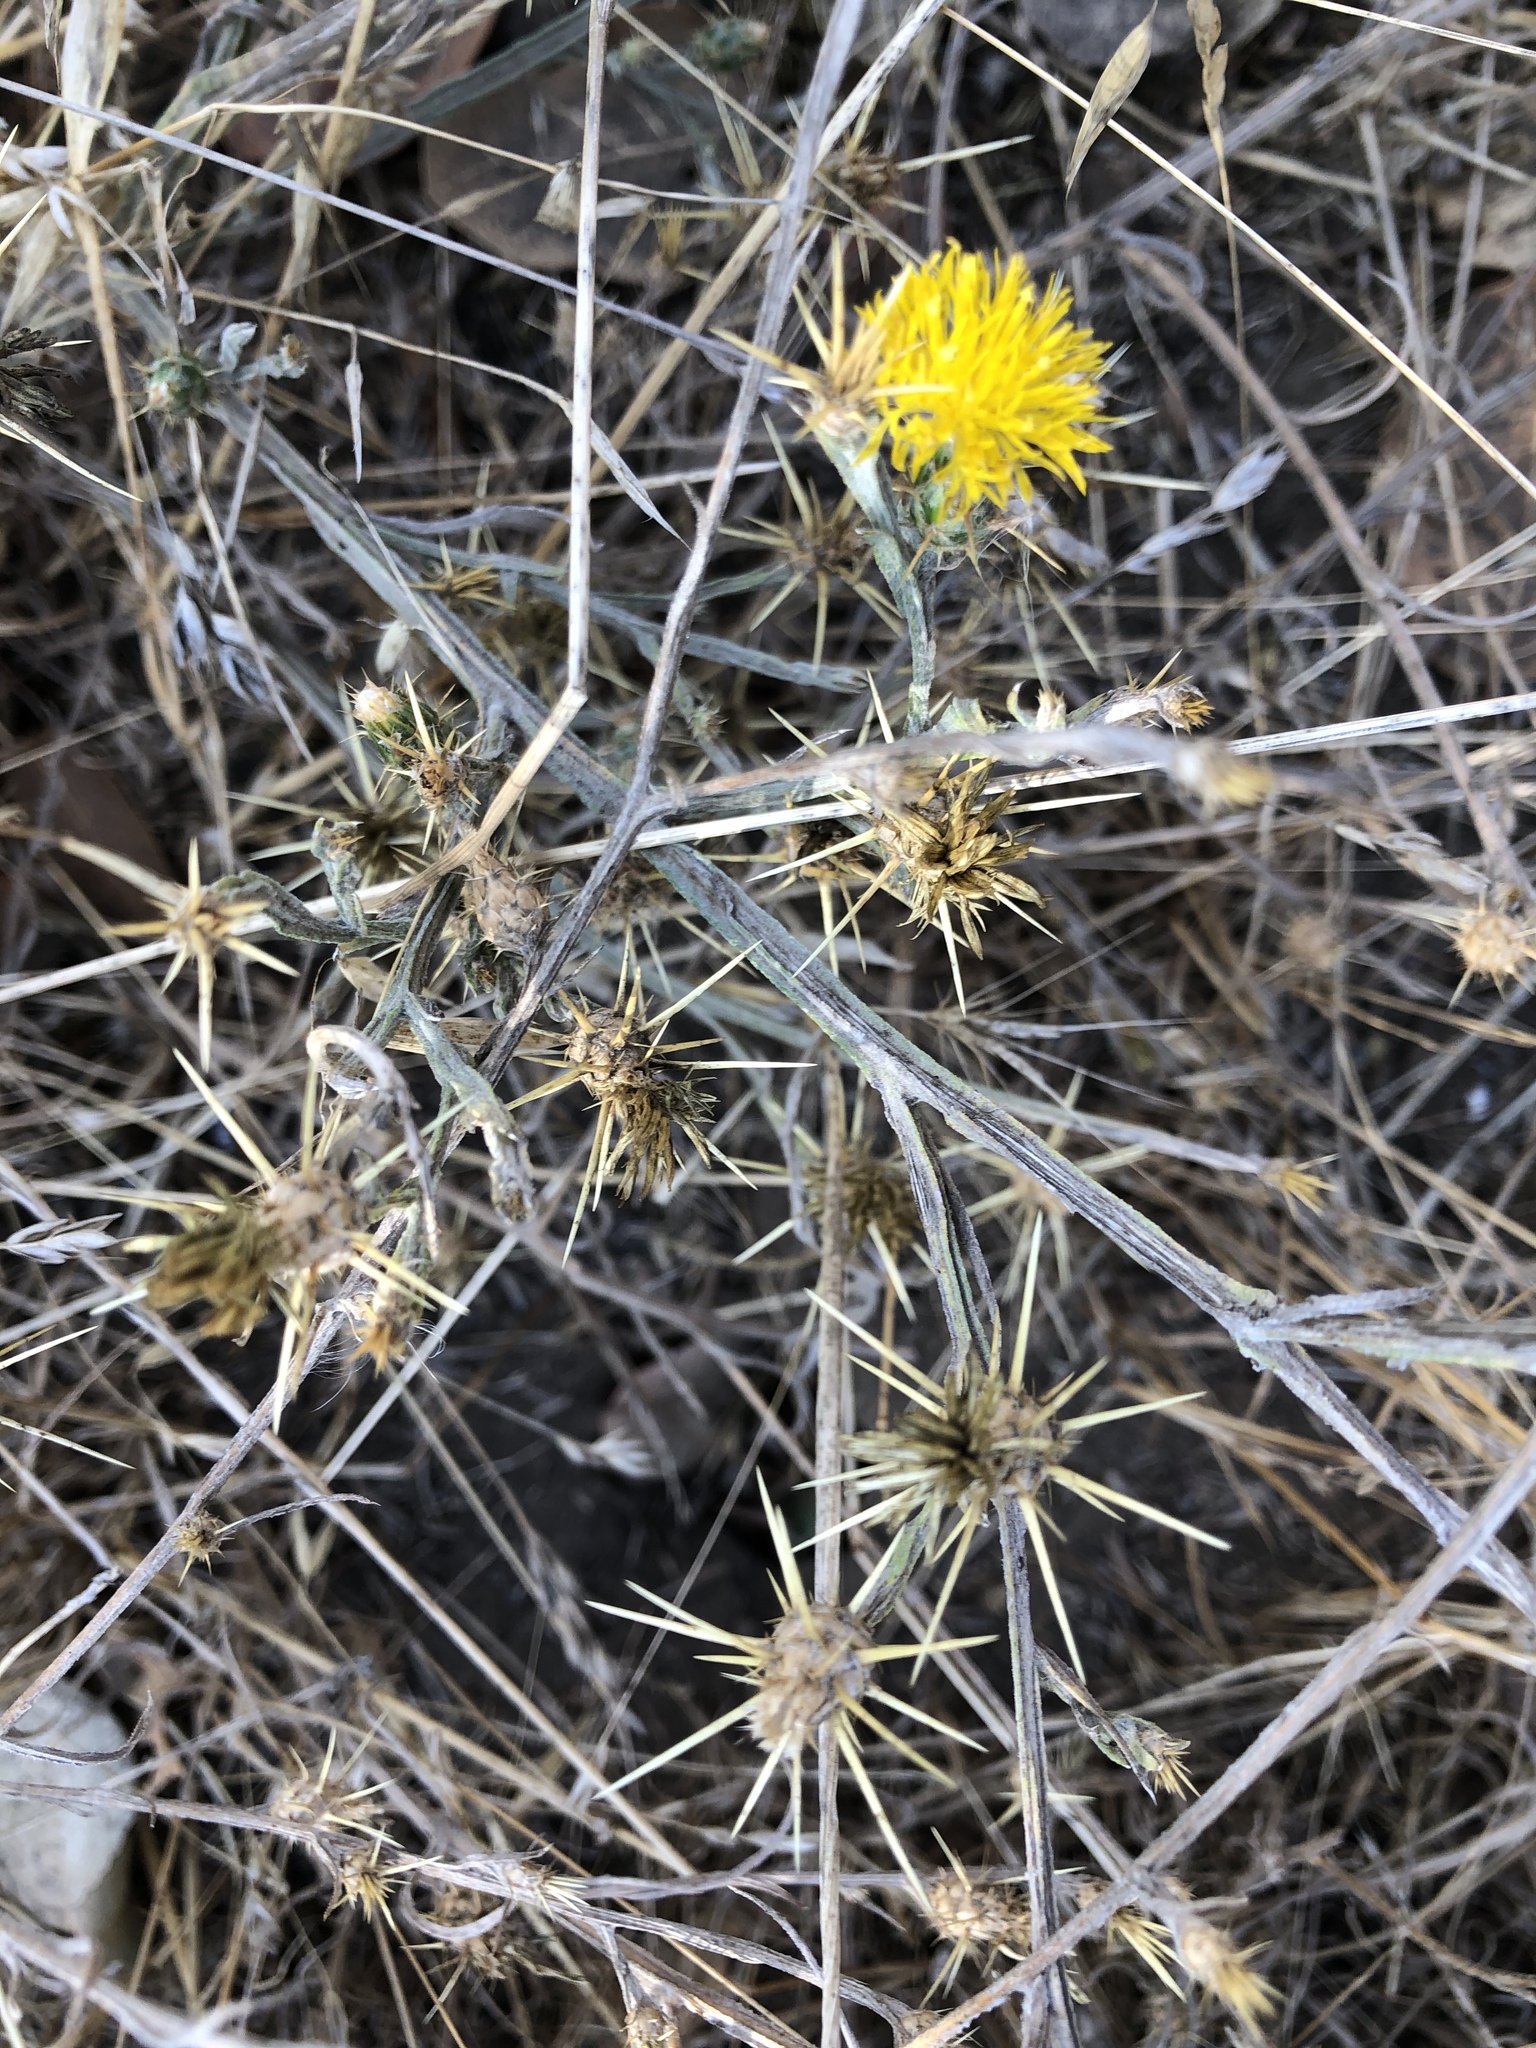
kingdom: Plantae
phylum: Tracheophyta
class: Magnoliopsida
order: Asterales
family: Asteraceae
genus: Centaurea
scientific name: Centaurea solstitialis
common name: Yellow star-thistle
